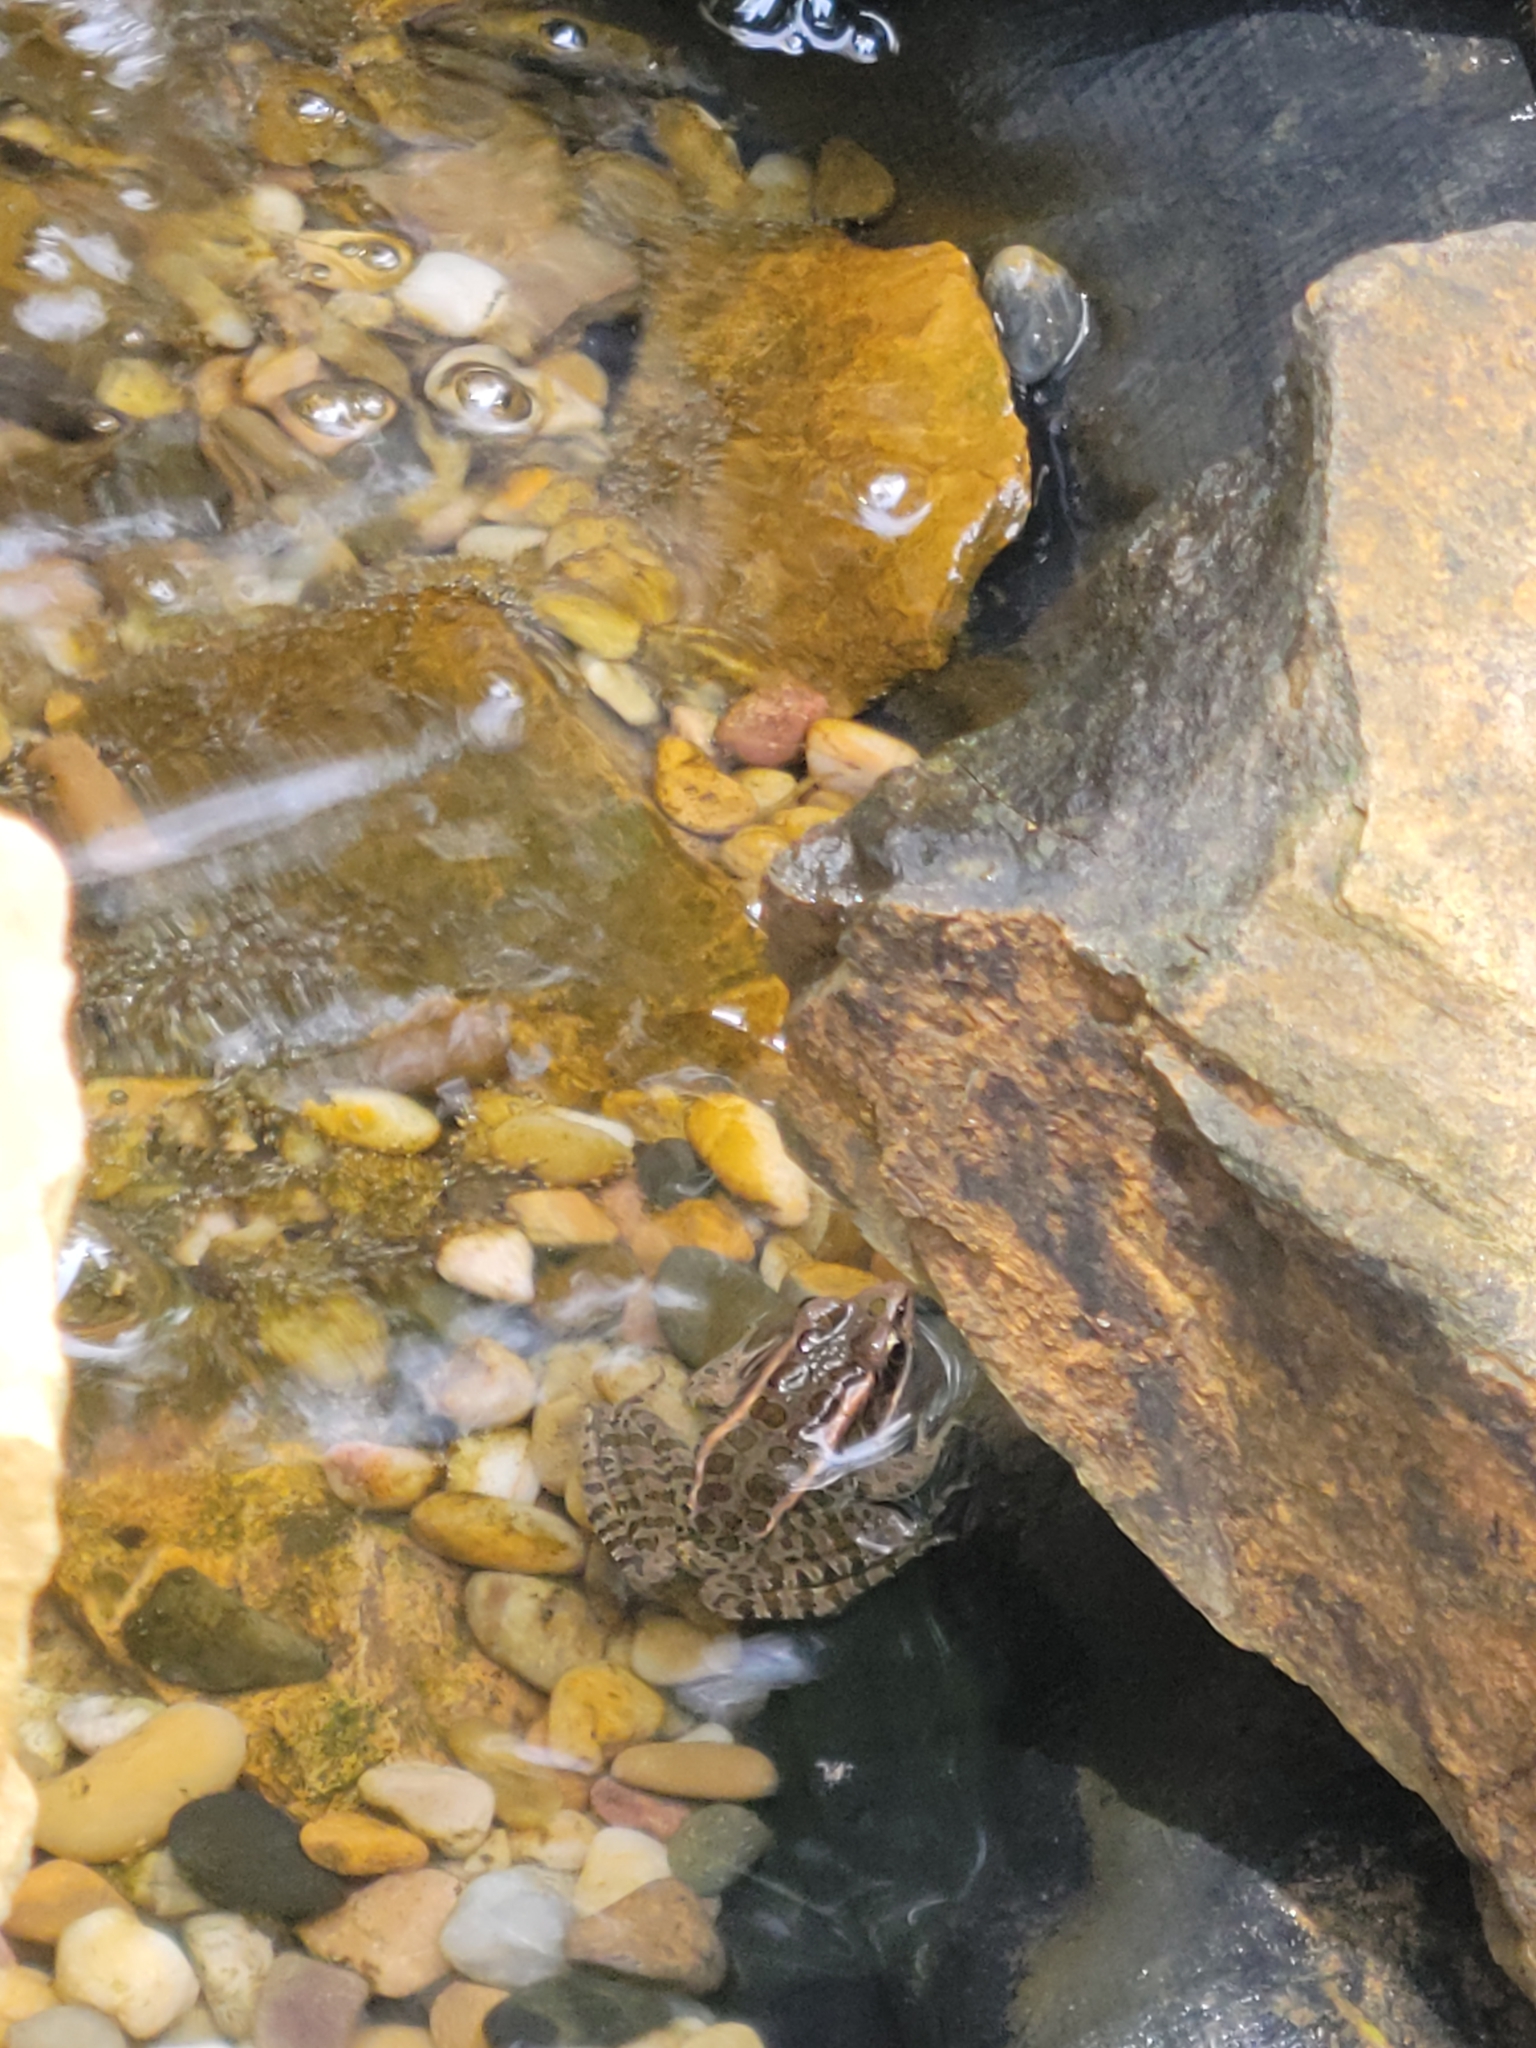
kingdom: Animalia
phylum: Chordata
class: Amphibia
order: Anura
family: Ranidae
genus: Lithobates
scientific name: Lithobates palustris
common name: Pickerel frog
